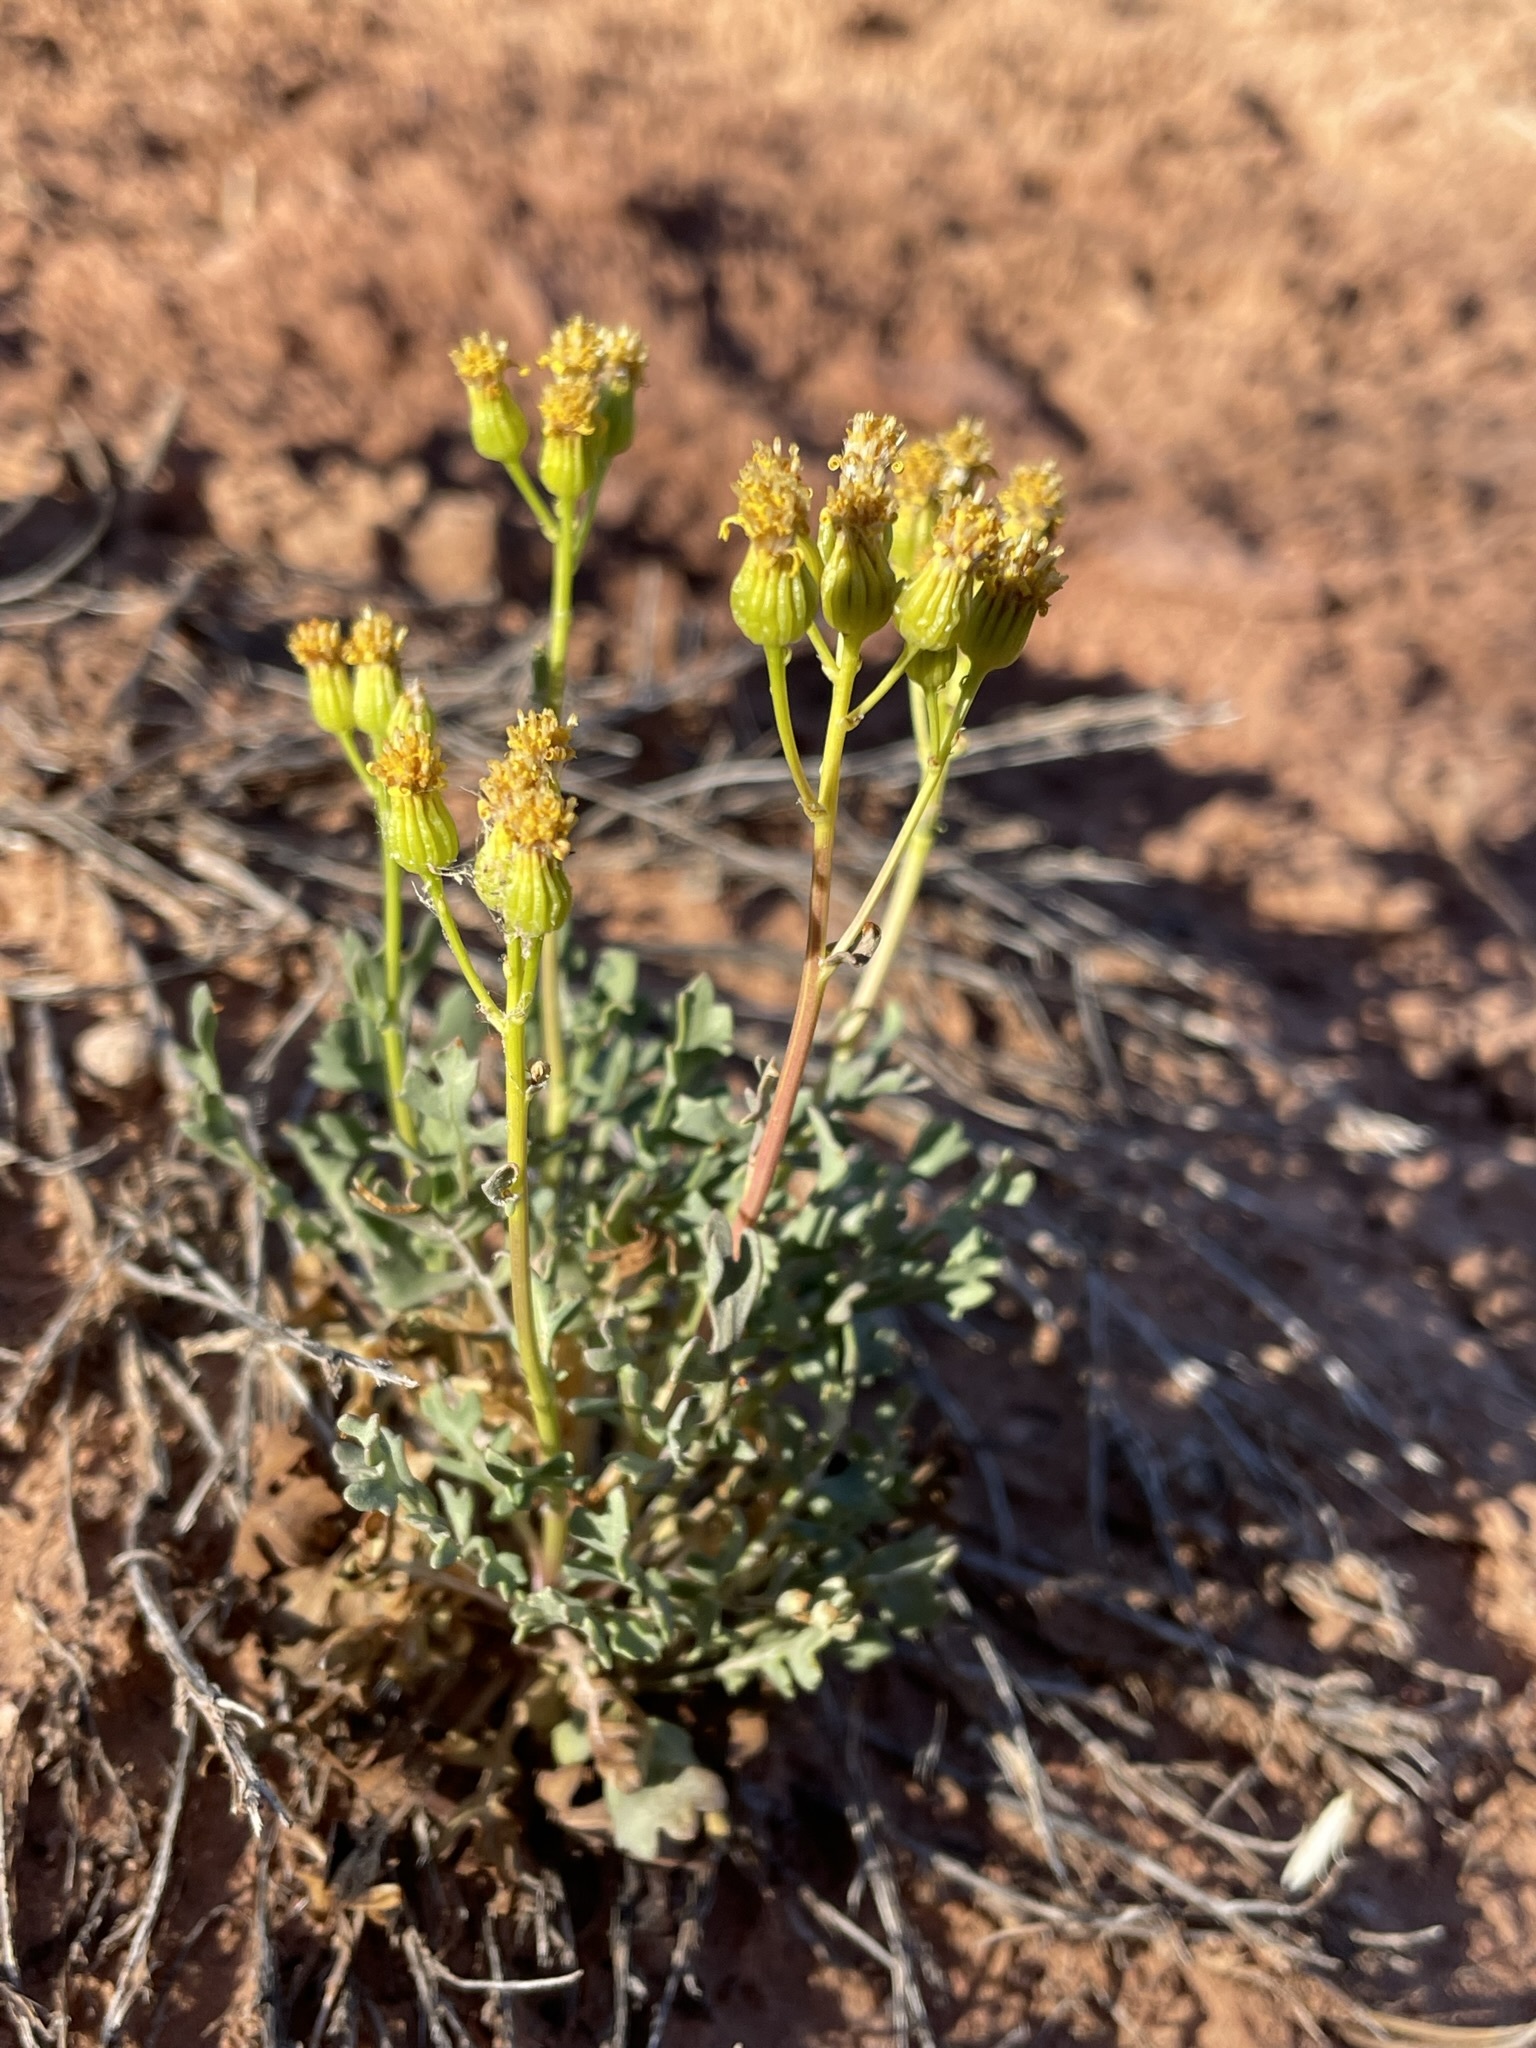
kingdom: Plantae
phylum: Tracheophyta
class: Magnoliopsida
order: Asterales
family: Asteraceae
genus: Packera
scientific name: Packera multilobata
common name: Lobe-leaf groundsel
